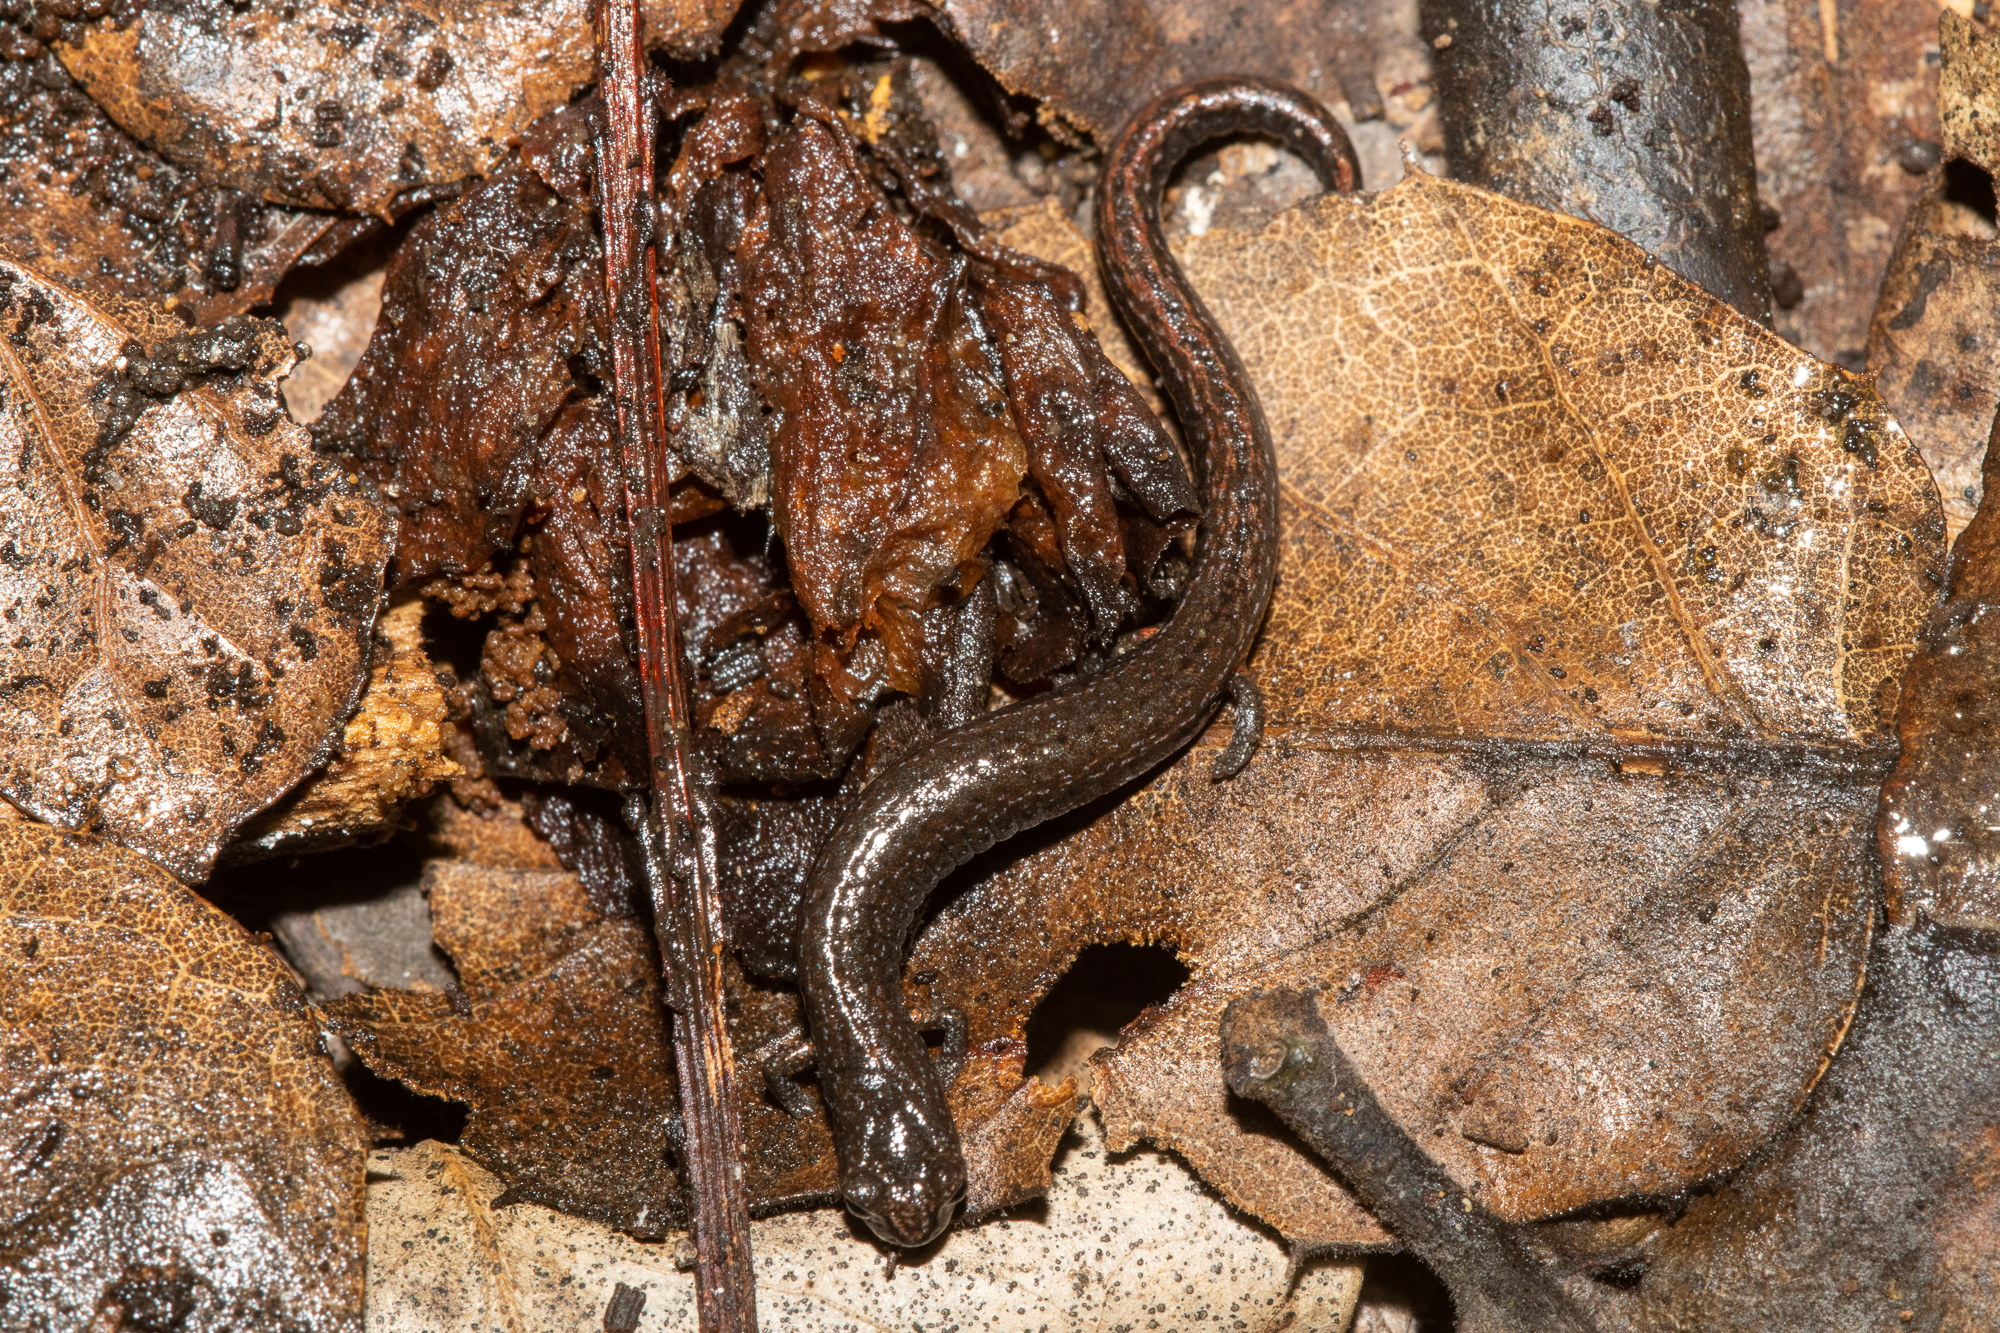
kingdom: Animalia
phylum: Chordata
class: Amphibia
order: Caudata
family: Plethodontidae
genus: Batrachoseps
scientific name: Batrachoseps attenuatus
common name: California slender salamander
